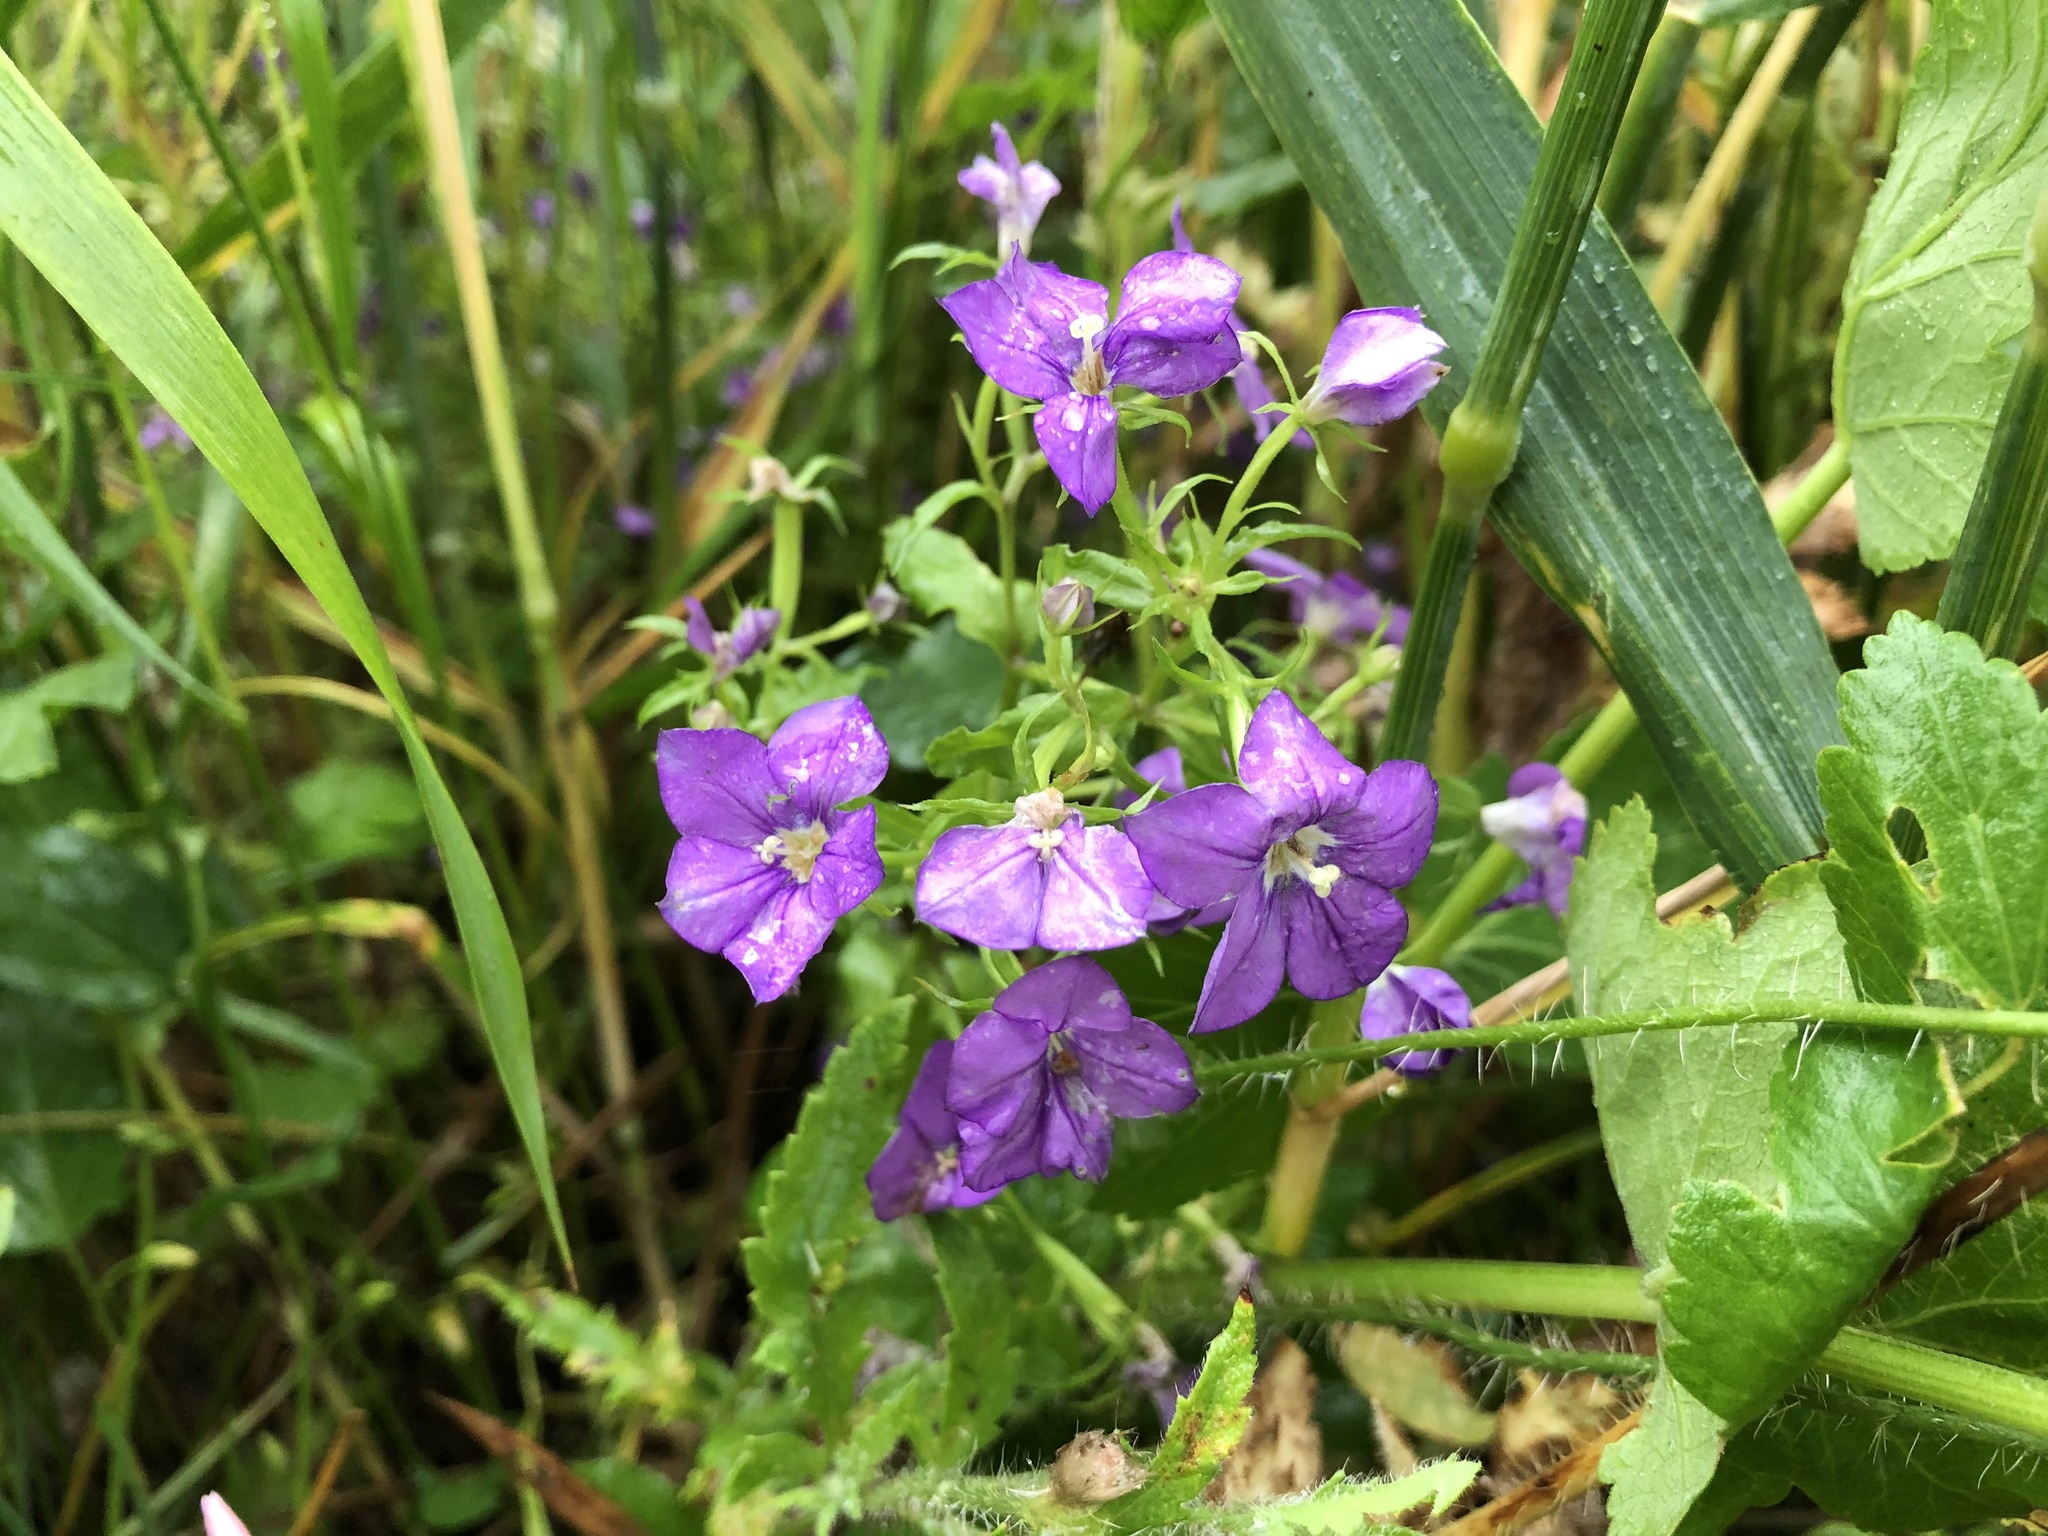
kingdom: Plantae
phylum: Tracheophyta
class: Magnoliopsida
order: Asterales
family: Campanulaceae
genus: Legousia
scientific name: Legousia speculum-veneris
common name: Large venus's-looking-glass
